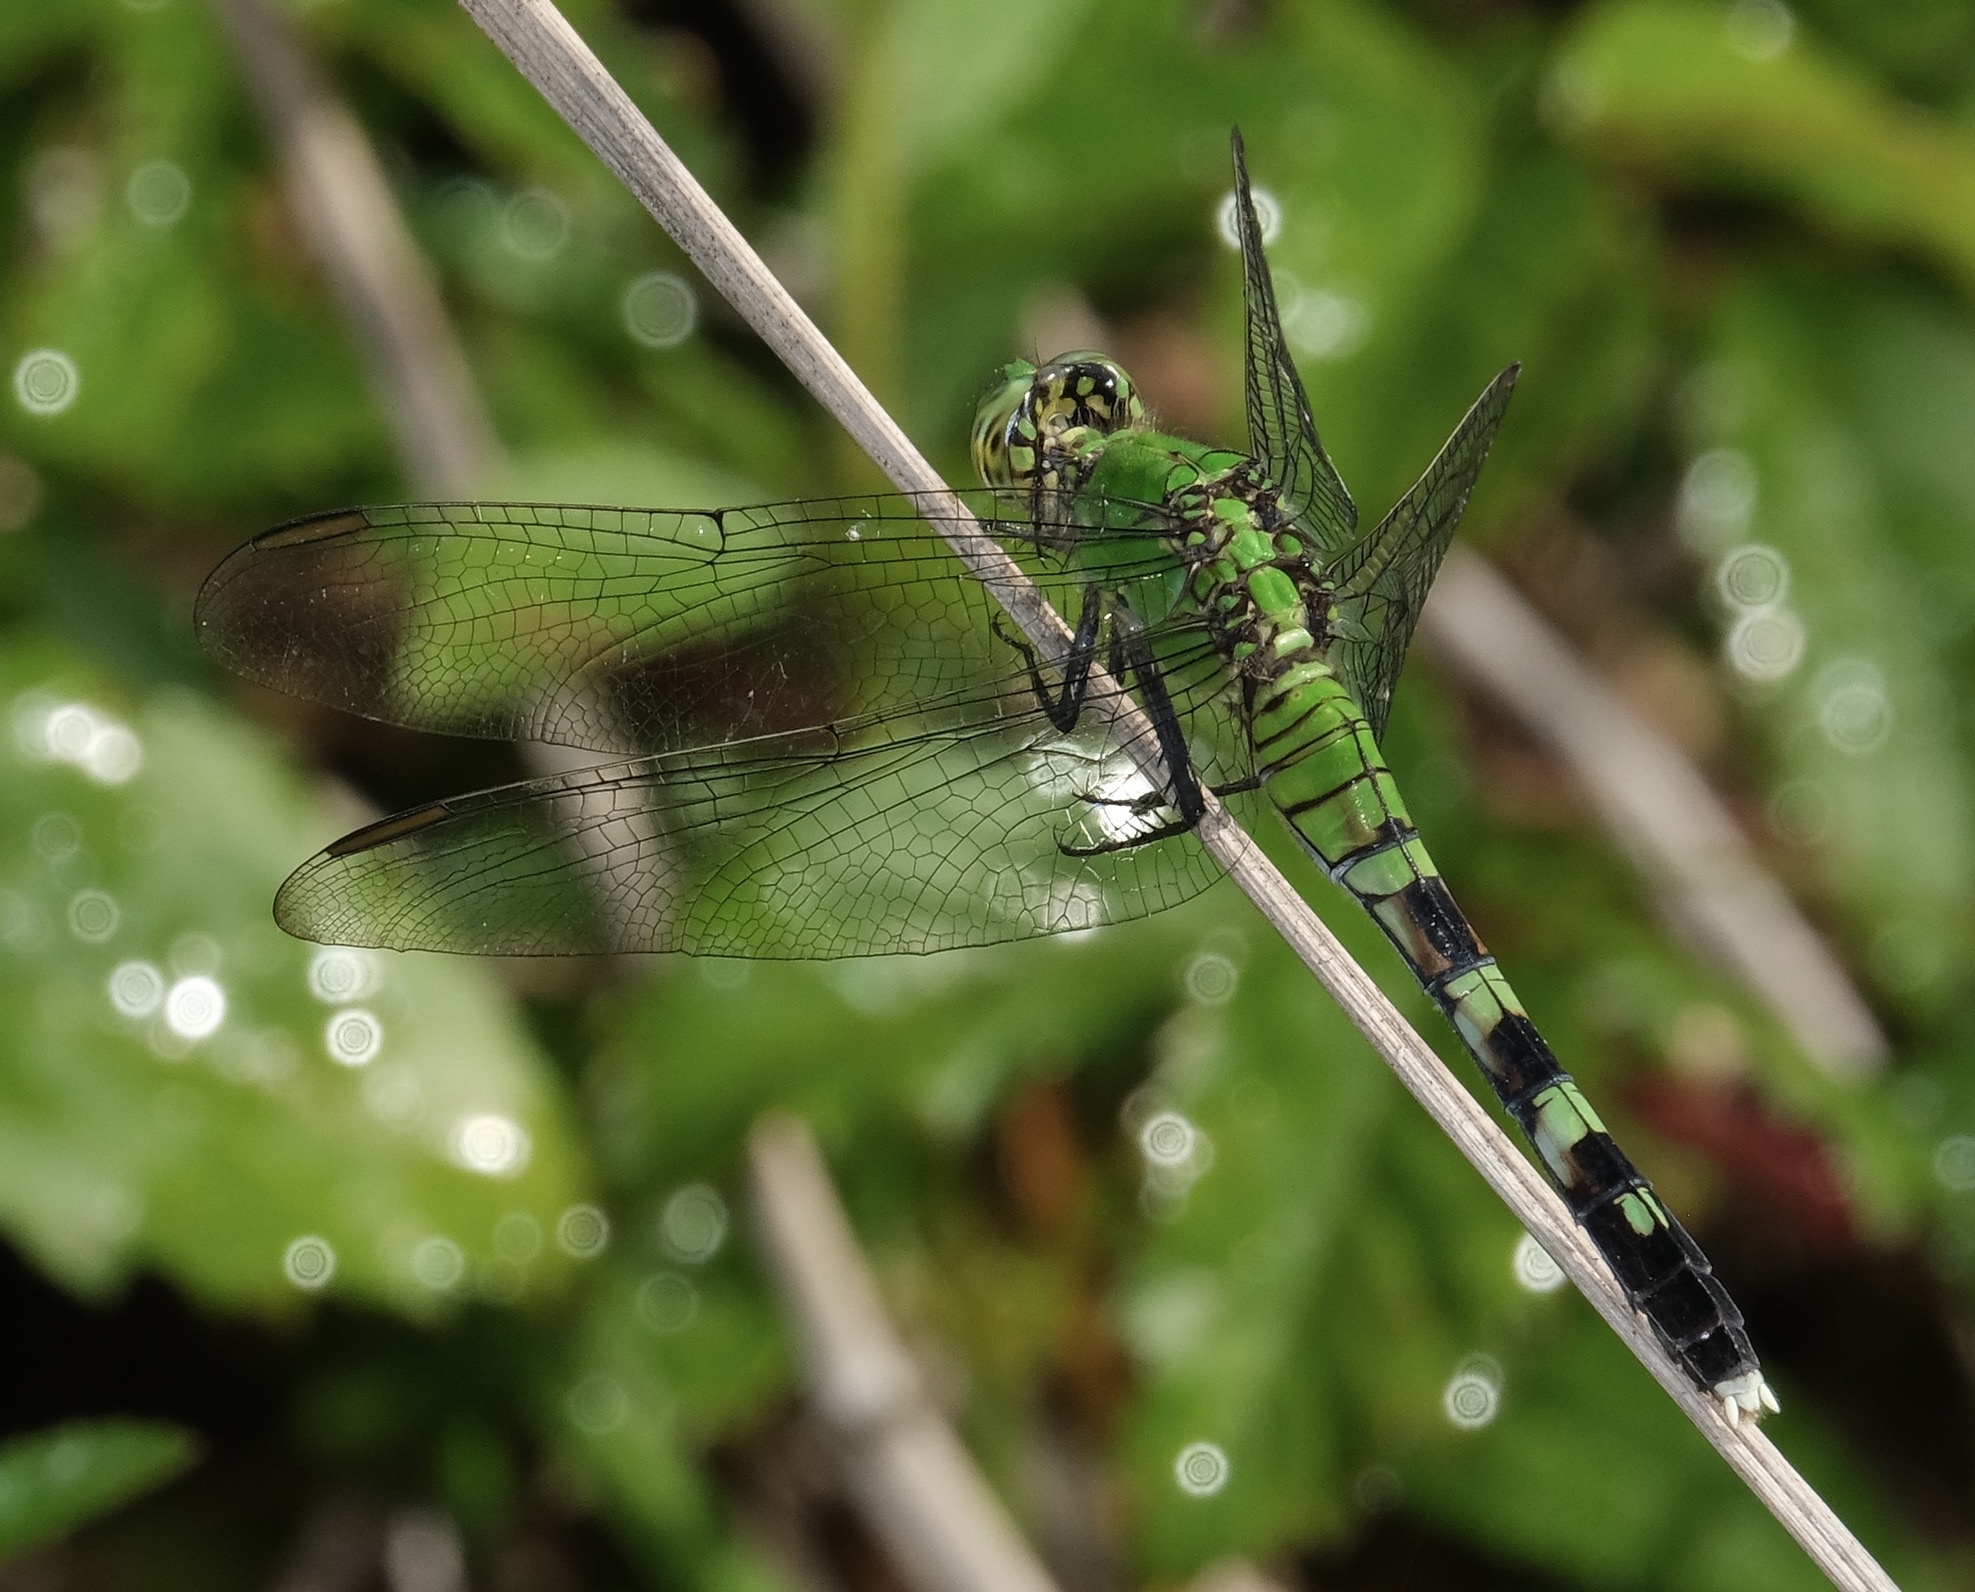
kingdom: Animalia
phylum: Arthropoda
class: Insecta
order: Odonata
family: Libellulidae
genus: Erythemis
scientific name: Erythemis simplicicollis
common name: Eastern pondhawk
